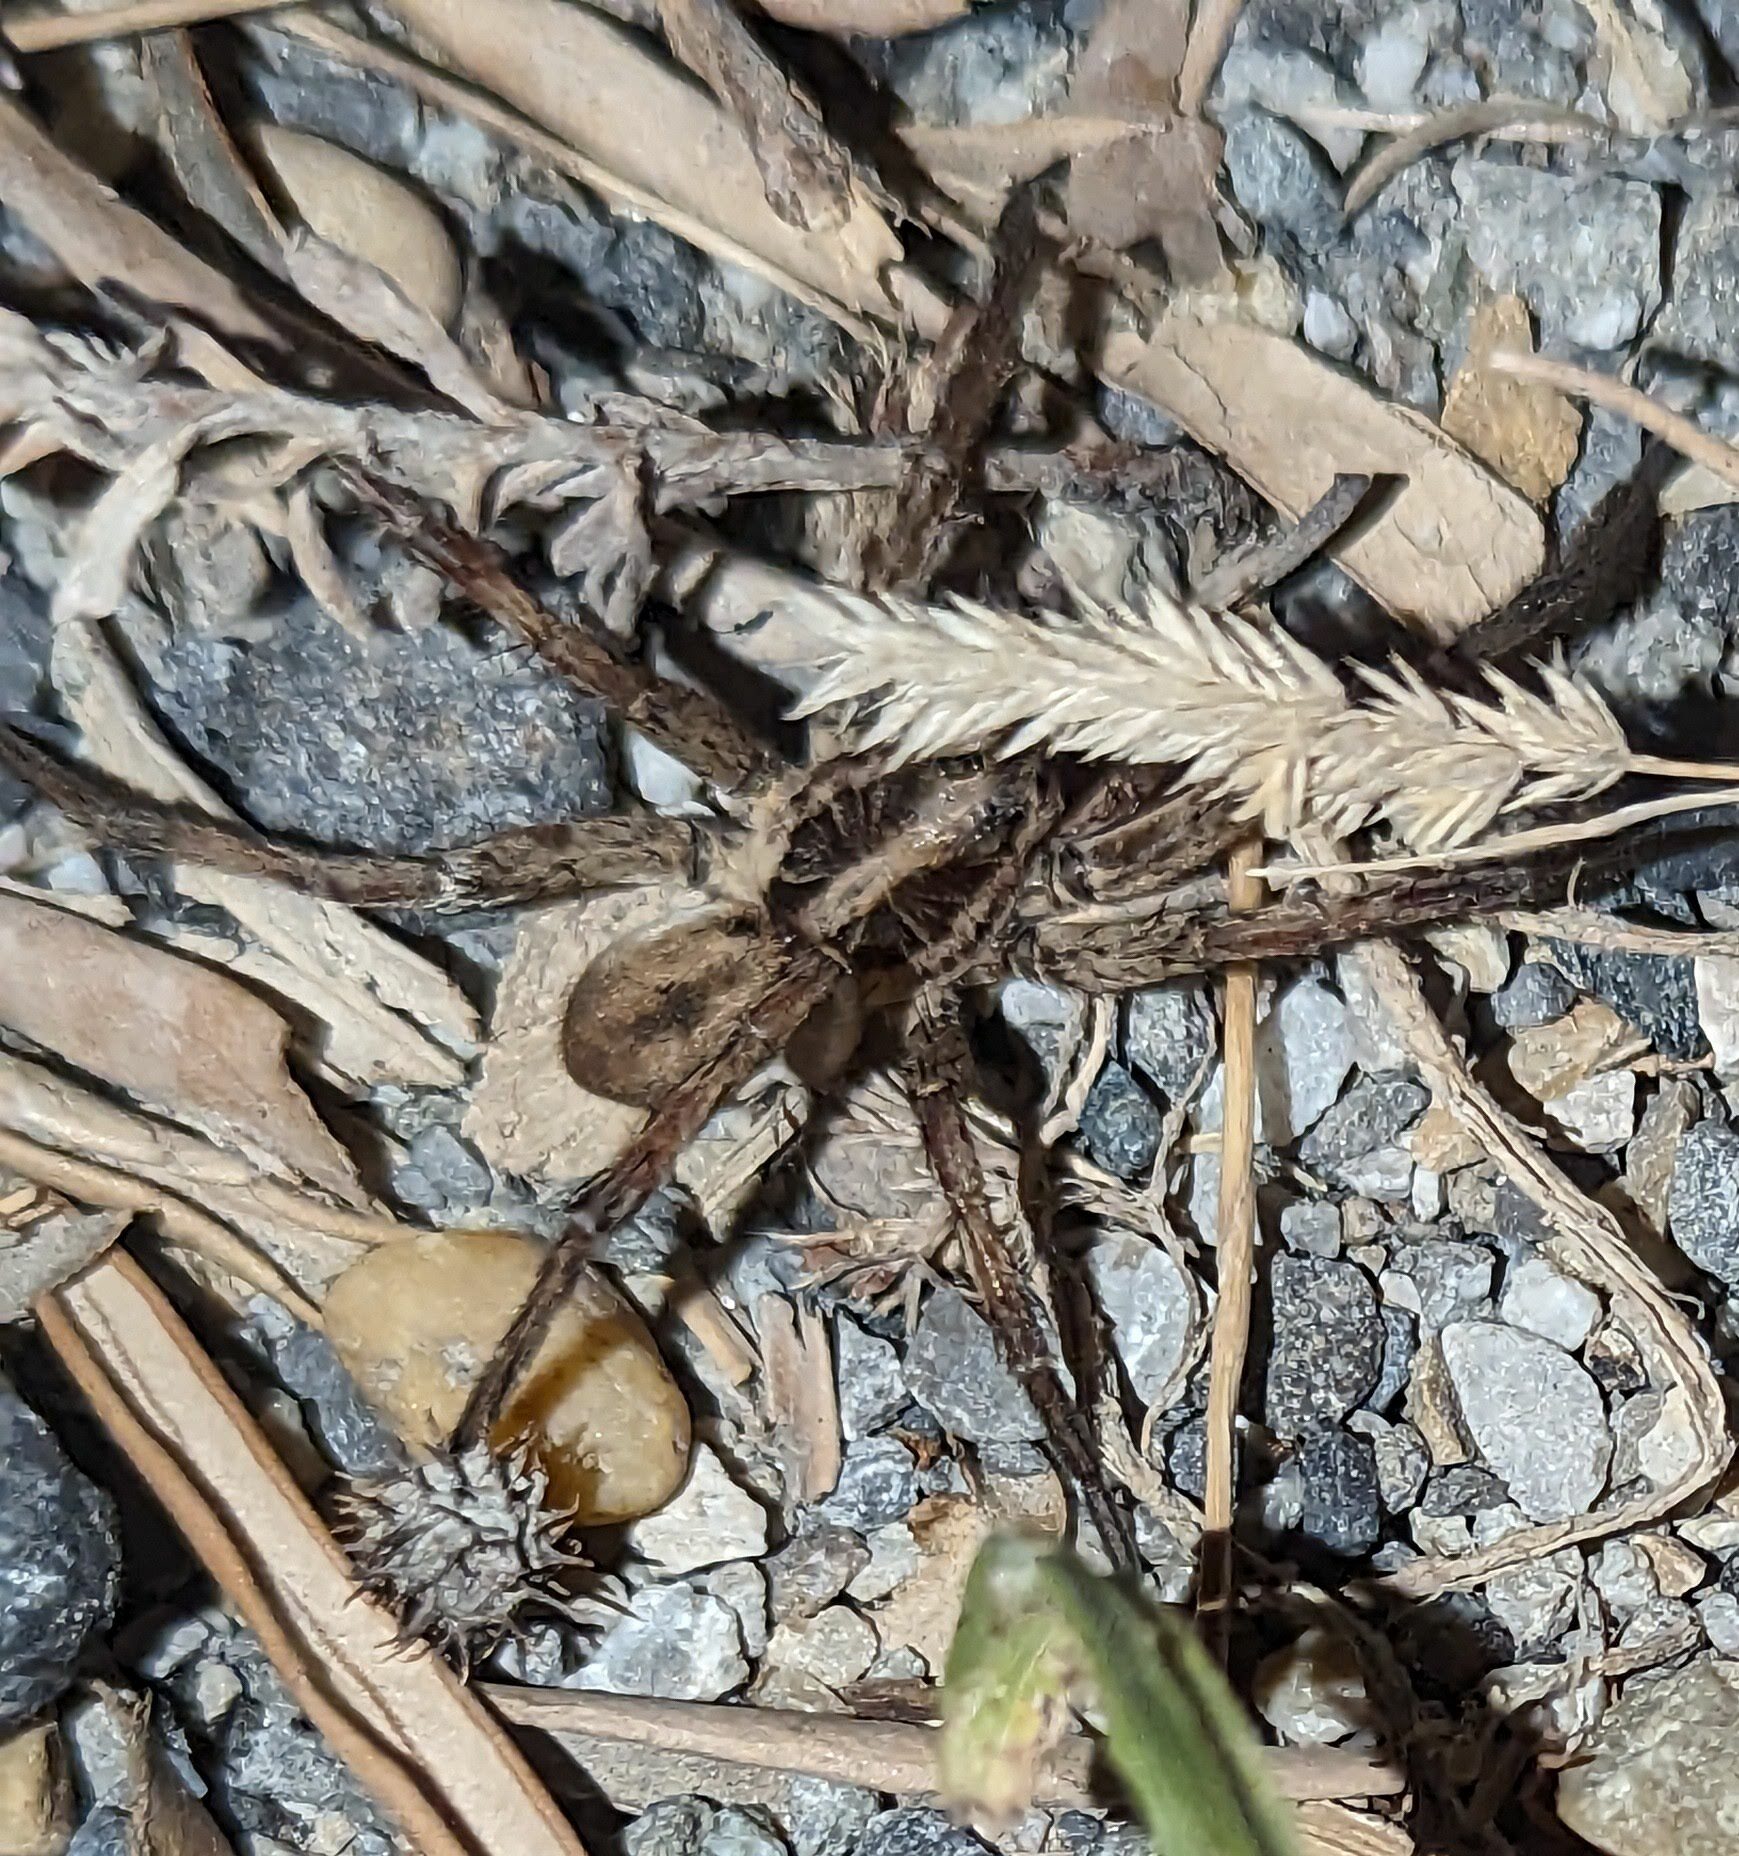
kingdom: Animalia
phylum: Arthropoda
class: Arachnida
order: Araneae
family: Lycosidae
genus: Hogna
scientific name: Hogna radiata
